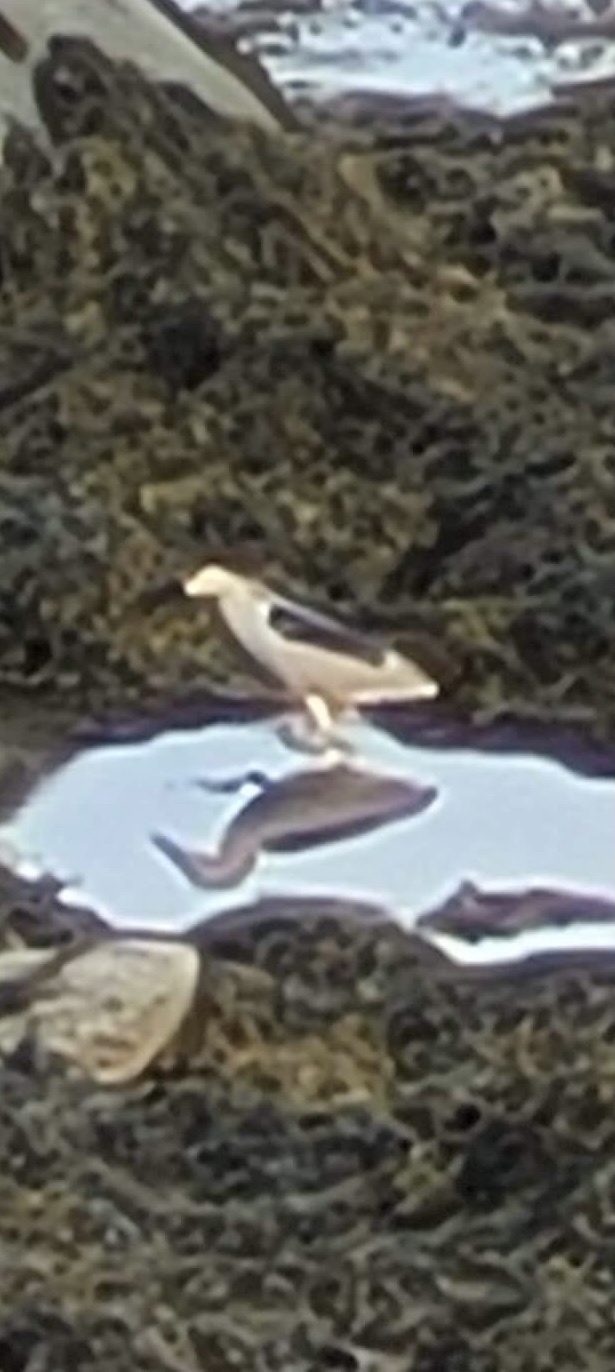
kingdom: Animalia
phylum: Chordata
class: Aves
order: Pelecaniformes
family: Ardeidae
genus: Nycticorax
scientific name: Nycticorax nycticorax
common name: Black-crowned night heron
